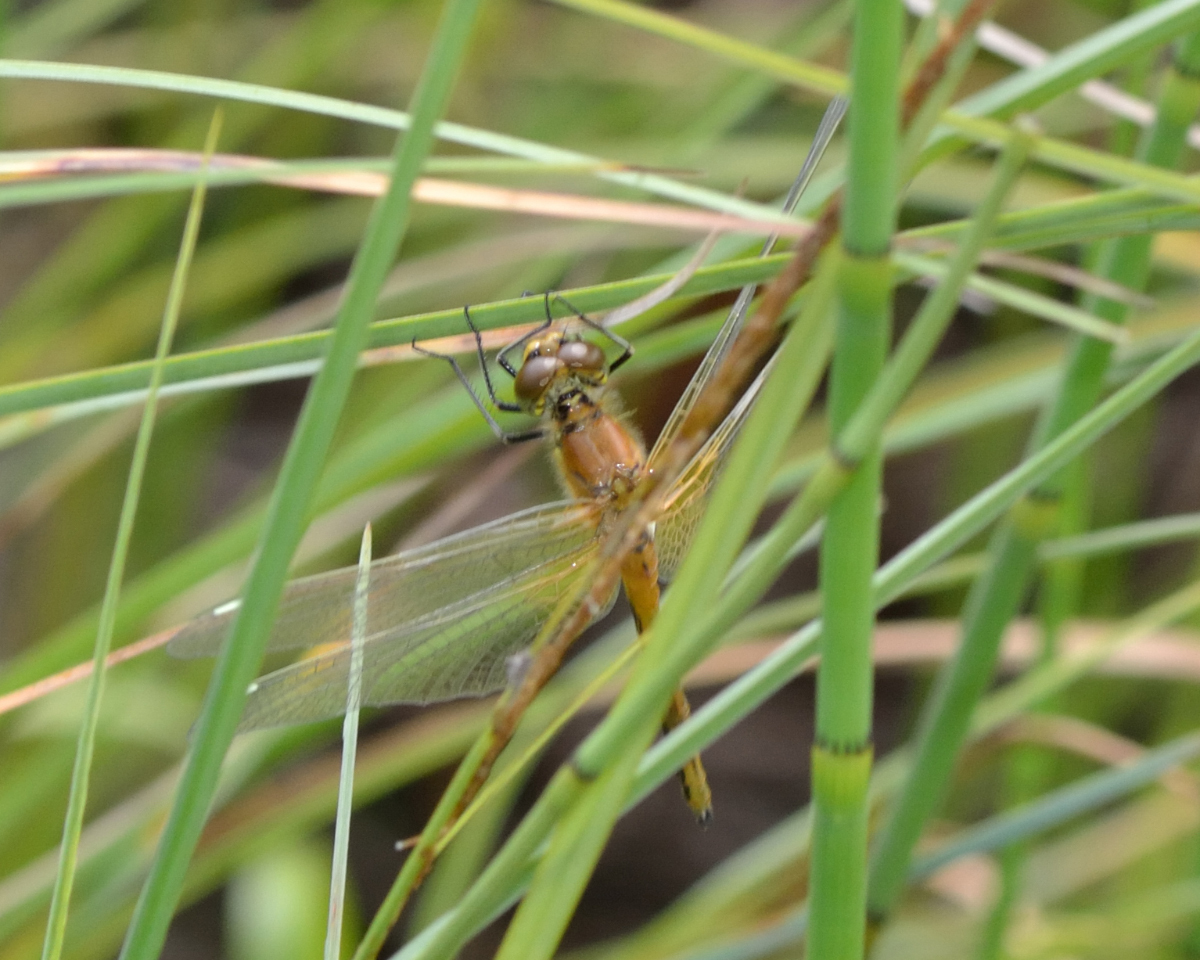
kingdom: Animalia
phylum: Arthropoda
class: Insecta
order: Odonata
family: Libellulidae
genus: Sympetrum
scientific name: Sympetrum flaveolum
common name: Yellow-winged darter
